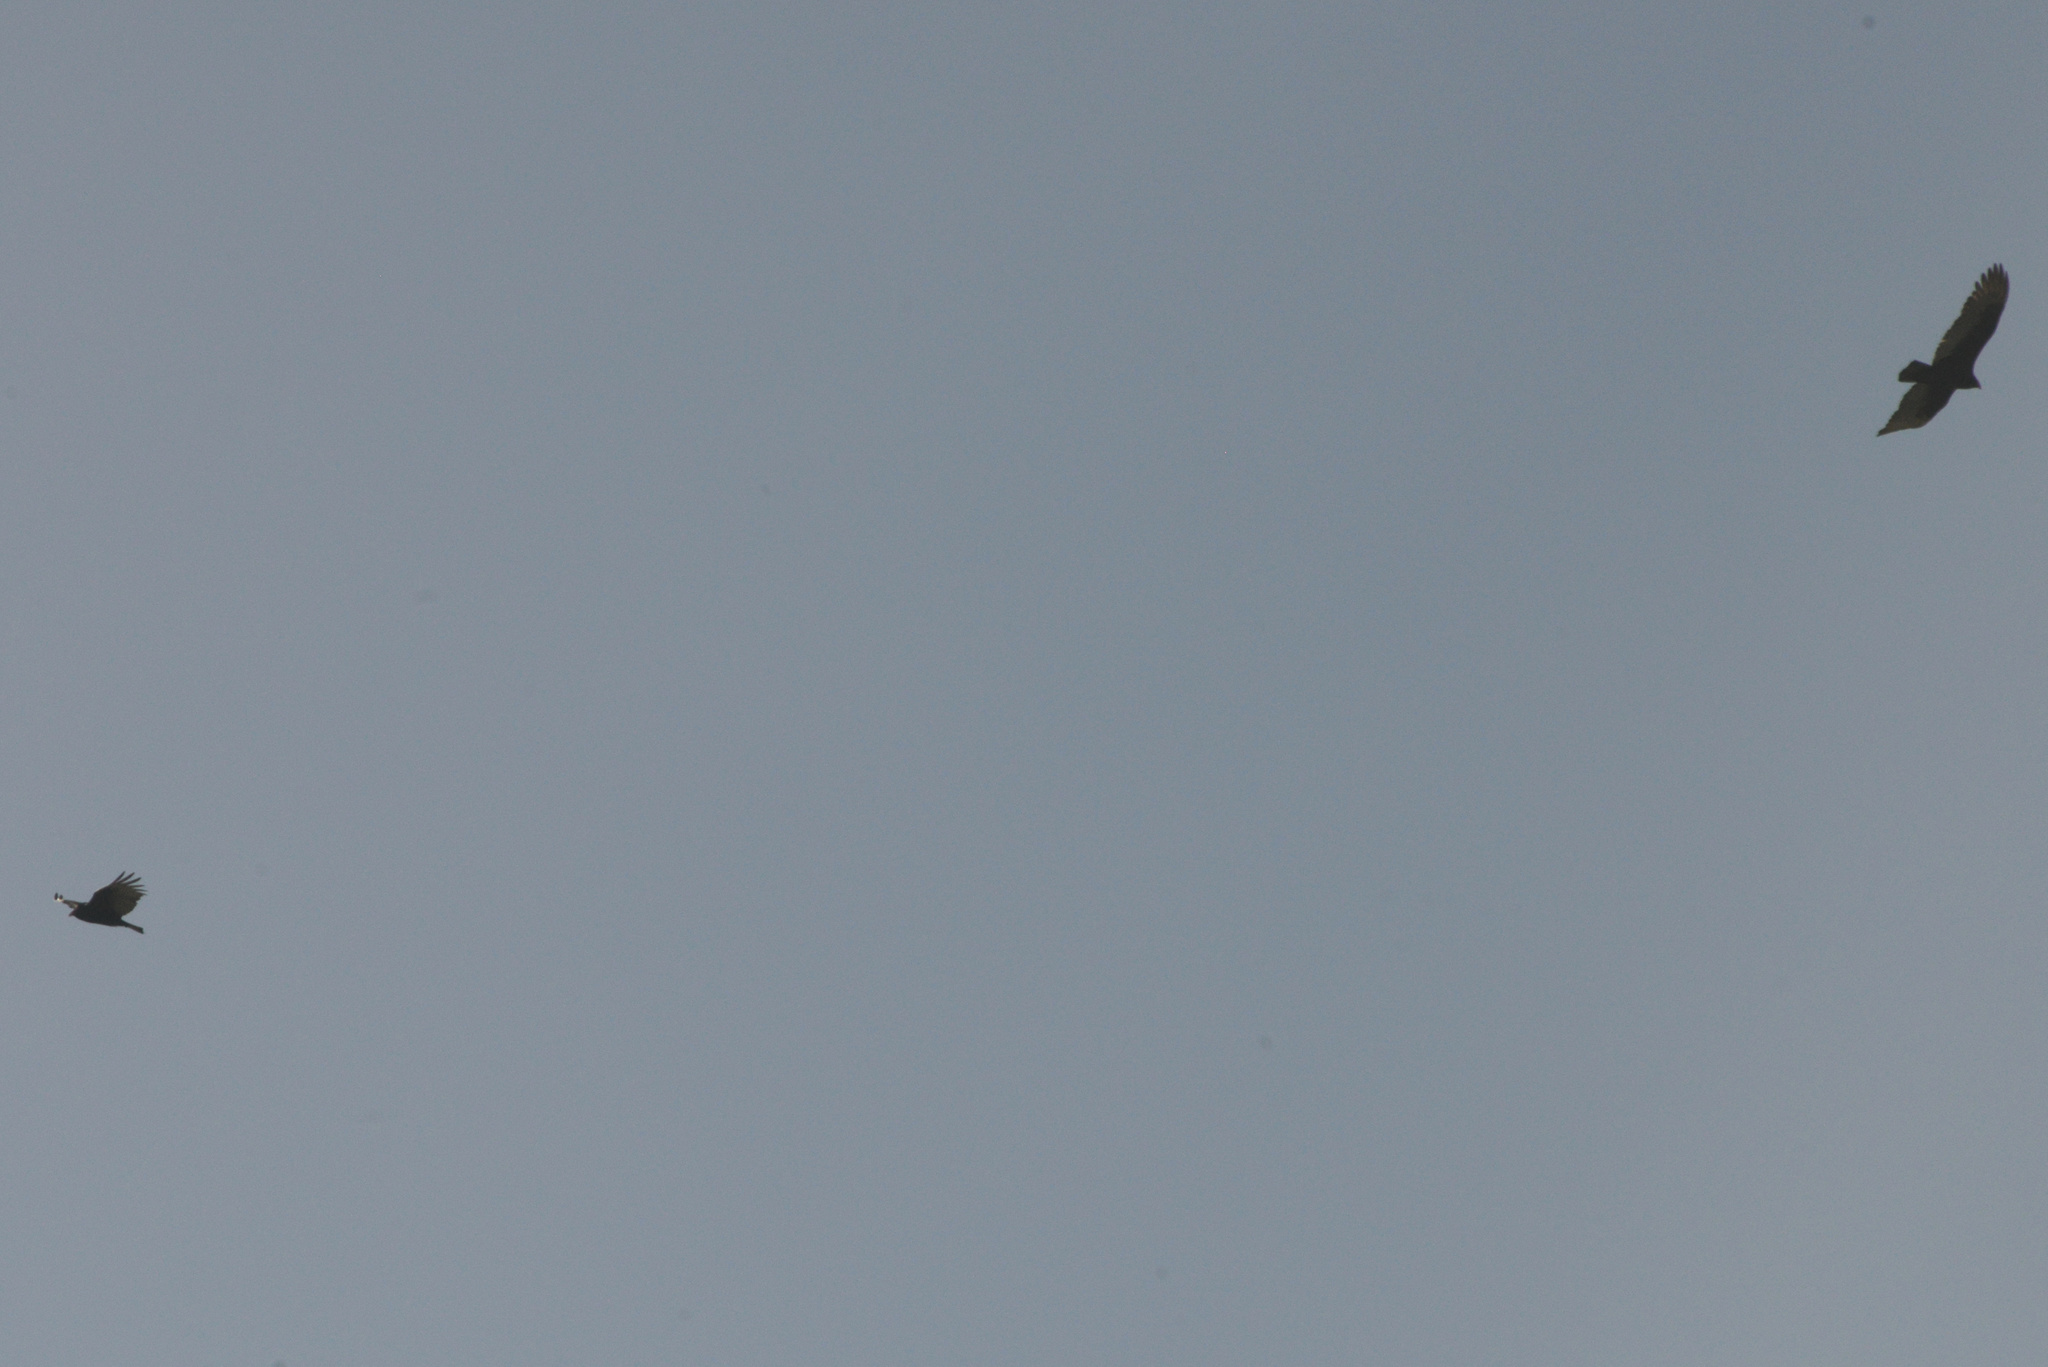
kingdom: Animalia
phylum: Chordata
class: Aves
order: Accipitriformes
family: Cathartidae
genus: Cathartes
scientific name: Cathartes aura
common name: Turkey vulture
